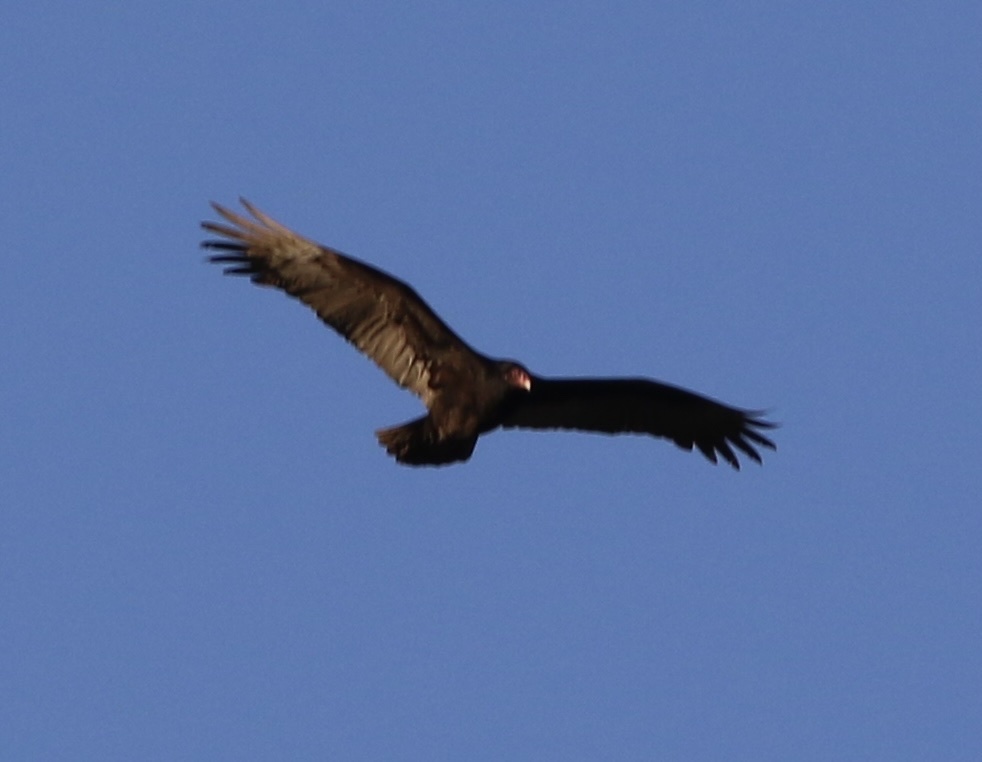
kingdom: Animalia
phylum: Chordata
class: Aves
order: Accipitriformes
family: Cathartidae
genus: Cathartes
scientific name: Cathartes aura
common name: Turkey vulture
